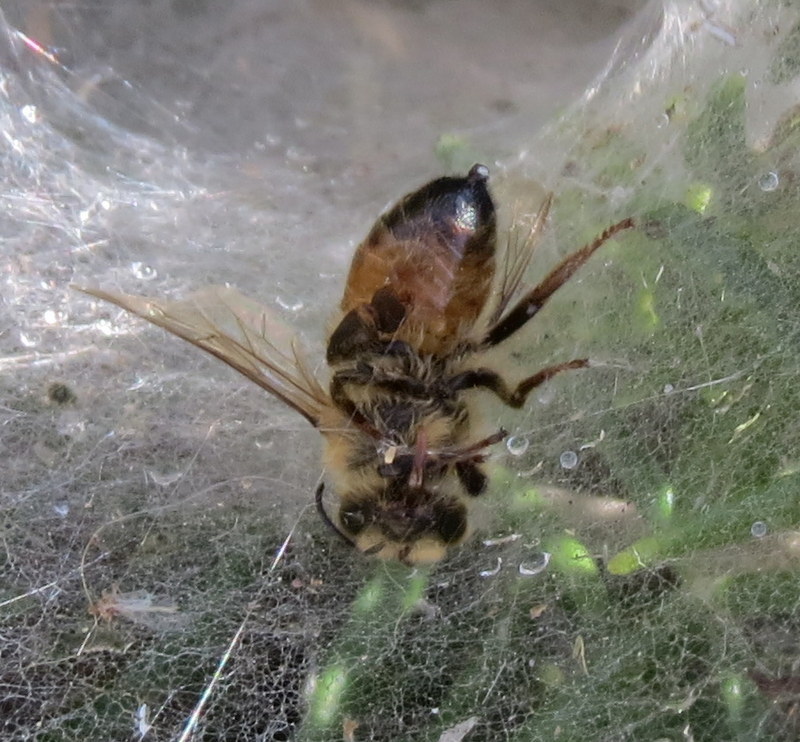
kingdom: Animalia
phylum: Arthropoda
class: Insecta
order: Hymenoptera
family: Apidae
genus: Apis
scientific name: Apis mellifera
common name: Honey bee
